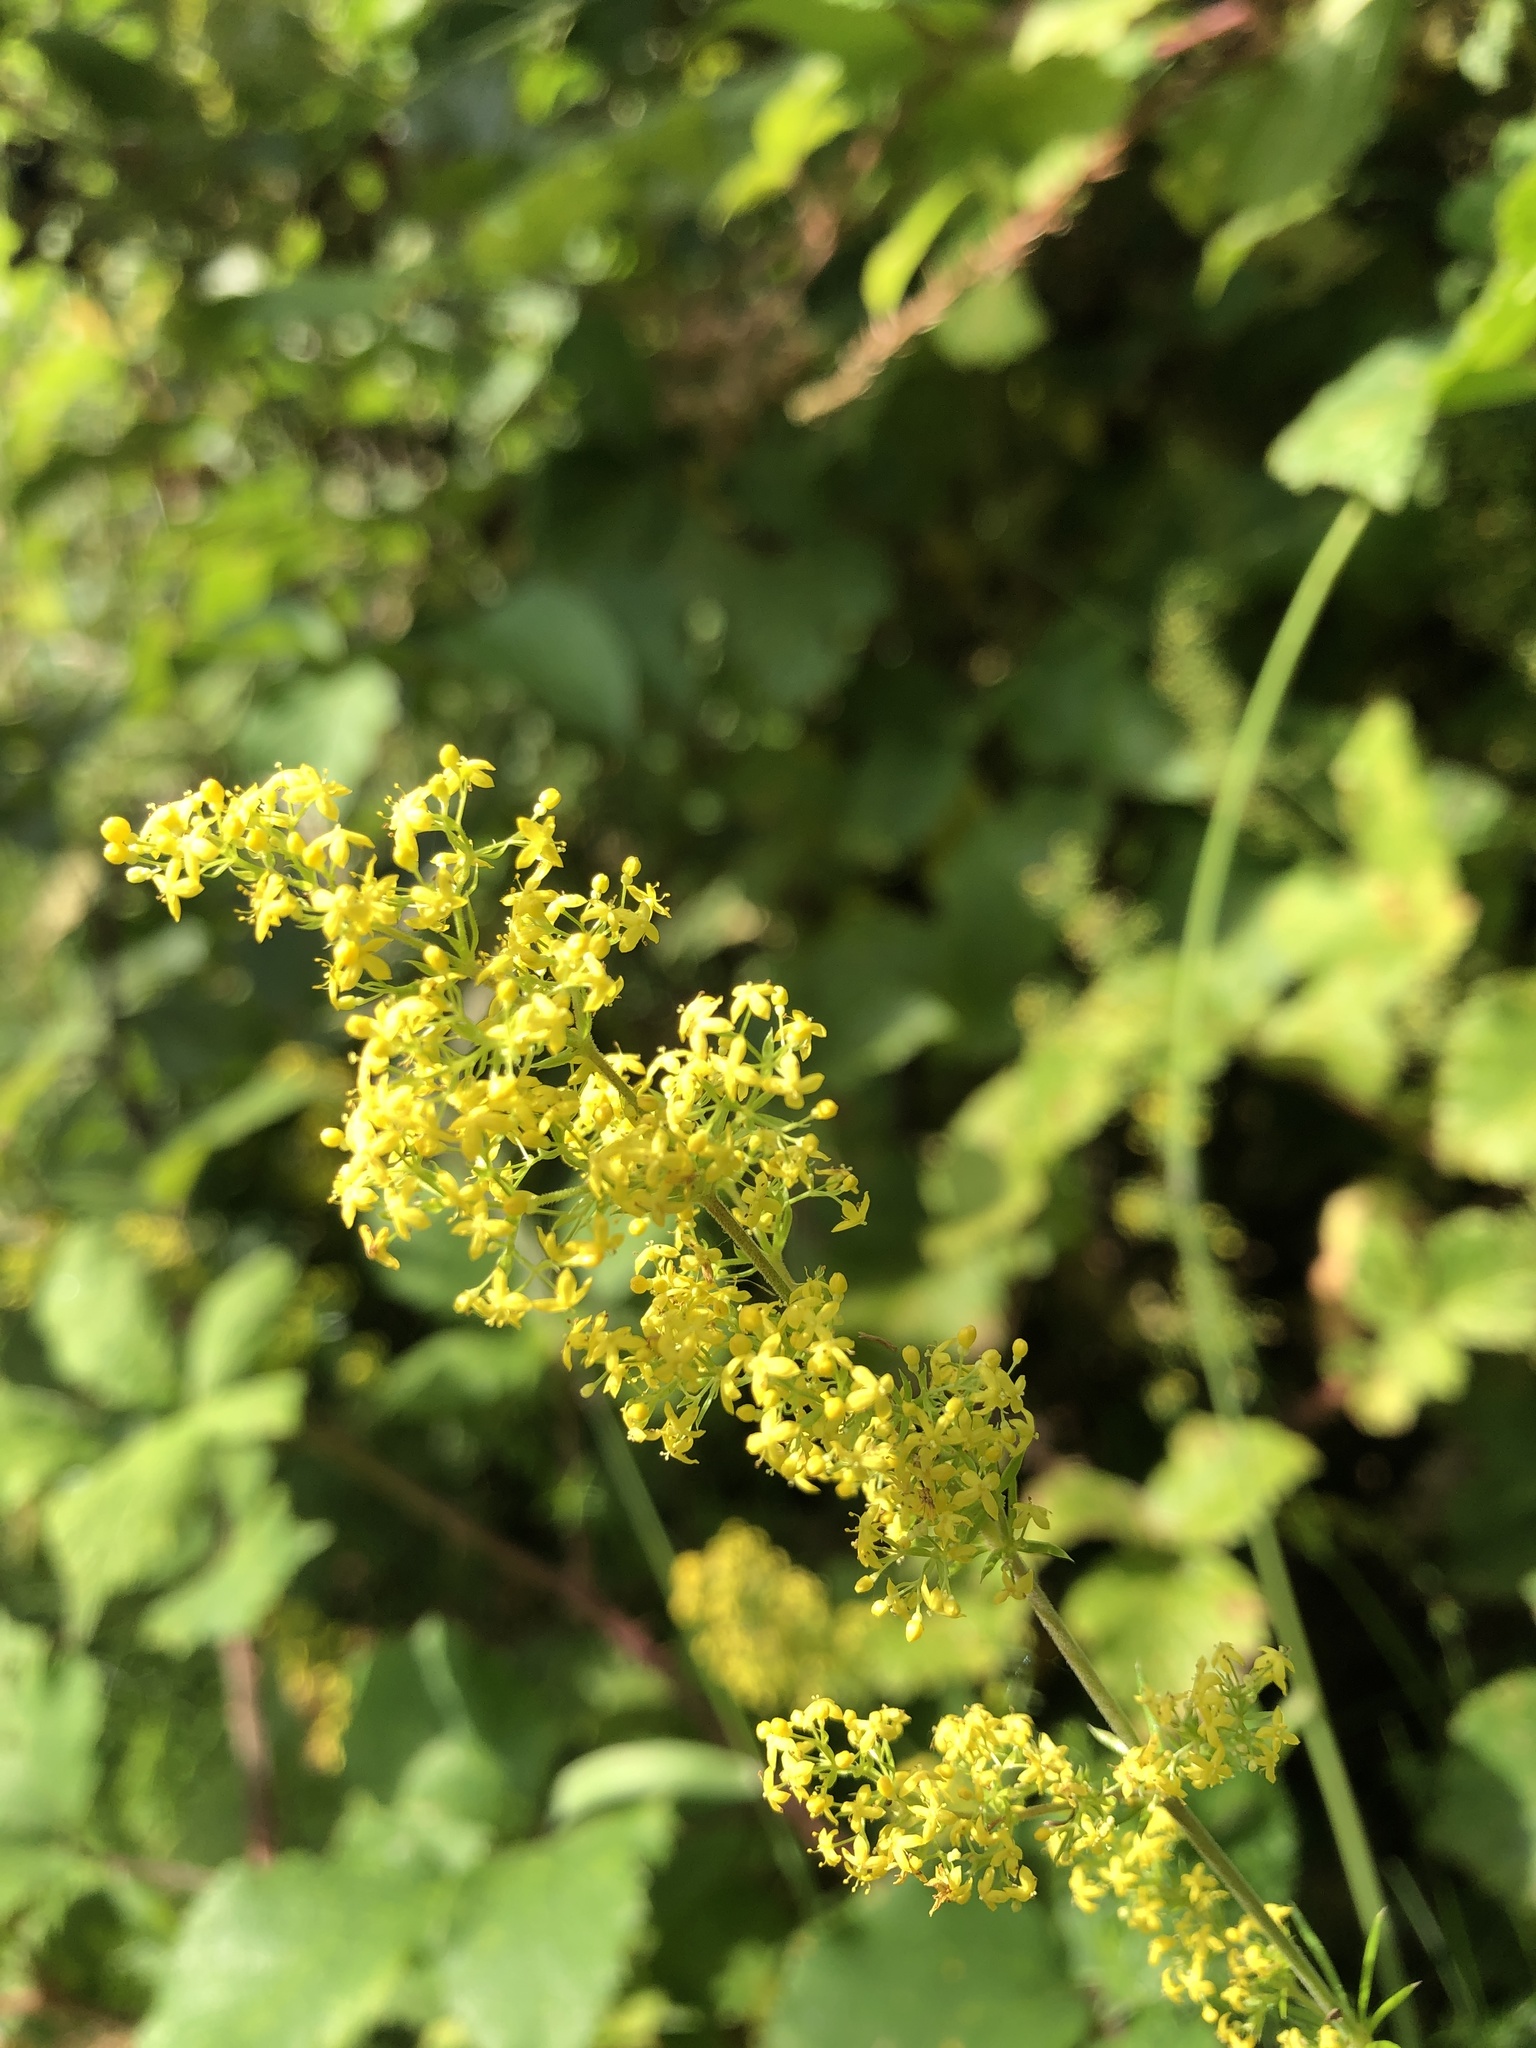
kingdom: Plantae
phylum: Tracheophyta
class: Magnoliopsida
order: Gentianales
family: Rubiaceae
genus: Galium
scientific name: Galium verum
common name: Lady's bedstraw
